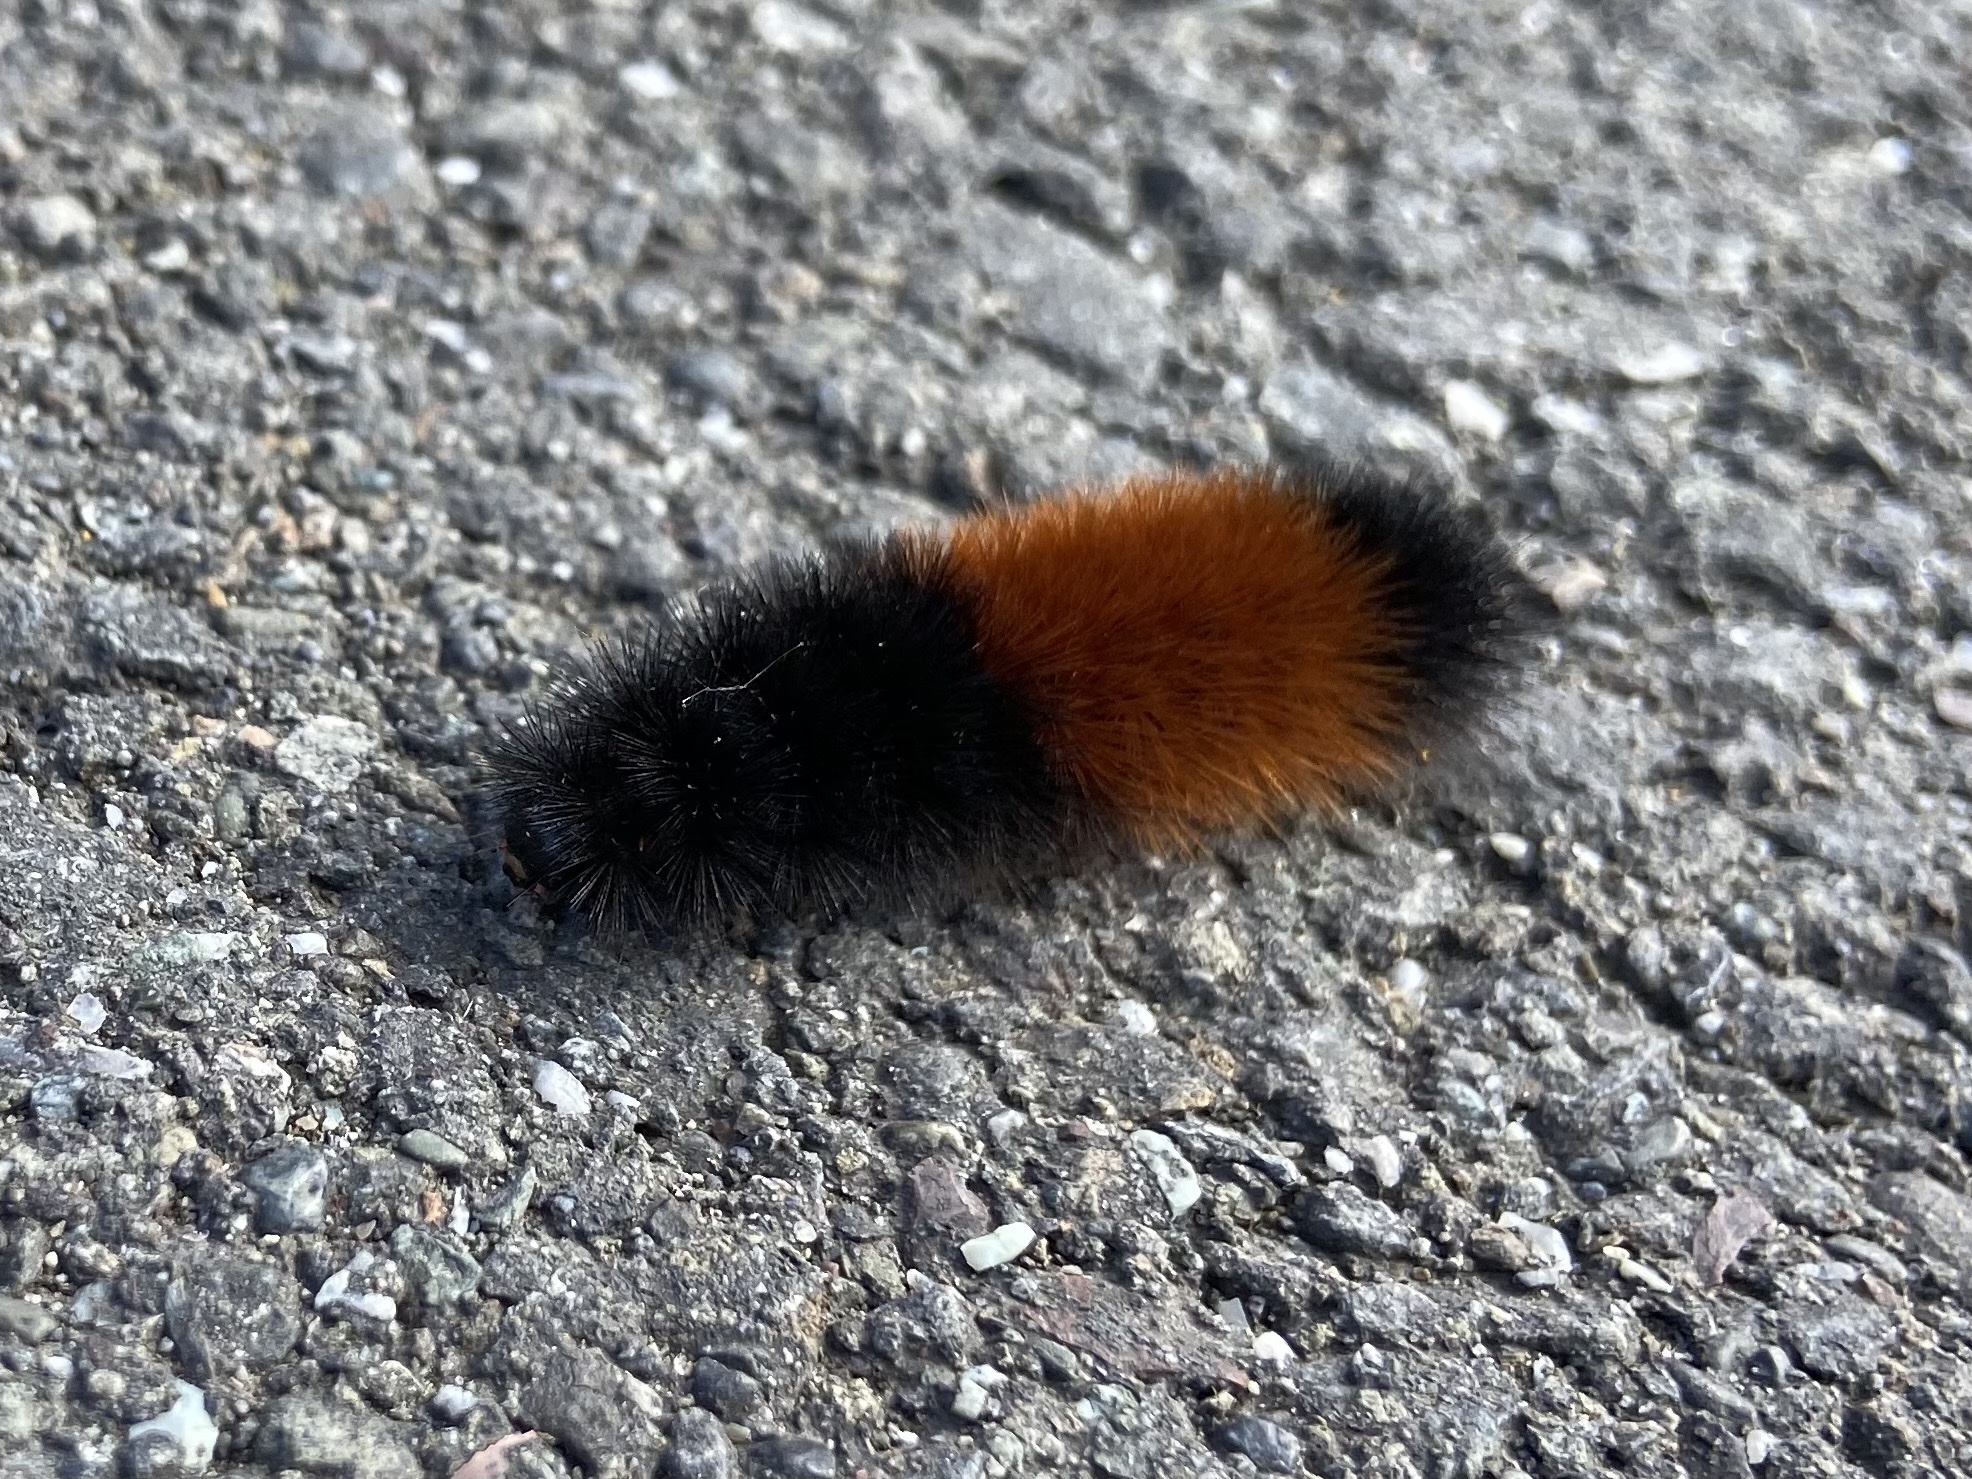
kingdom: Animalia
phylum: Arthropoda
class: Insecta
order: Lepidoptera
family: Erebidae
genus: Pyrrharctia
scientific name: Pyrrharctia isabella
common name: Isabella tiger moth
